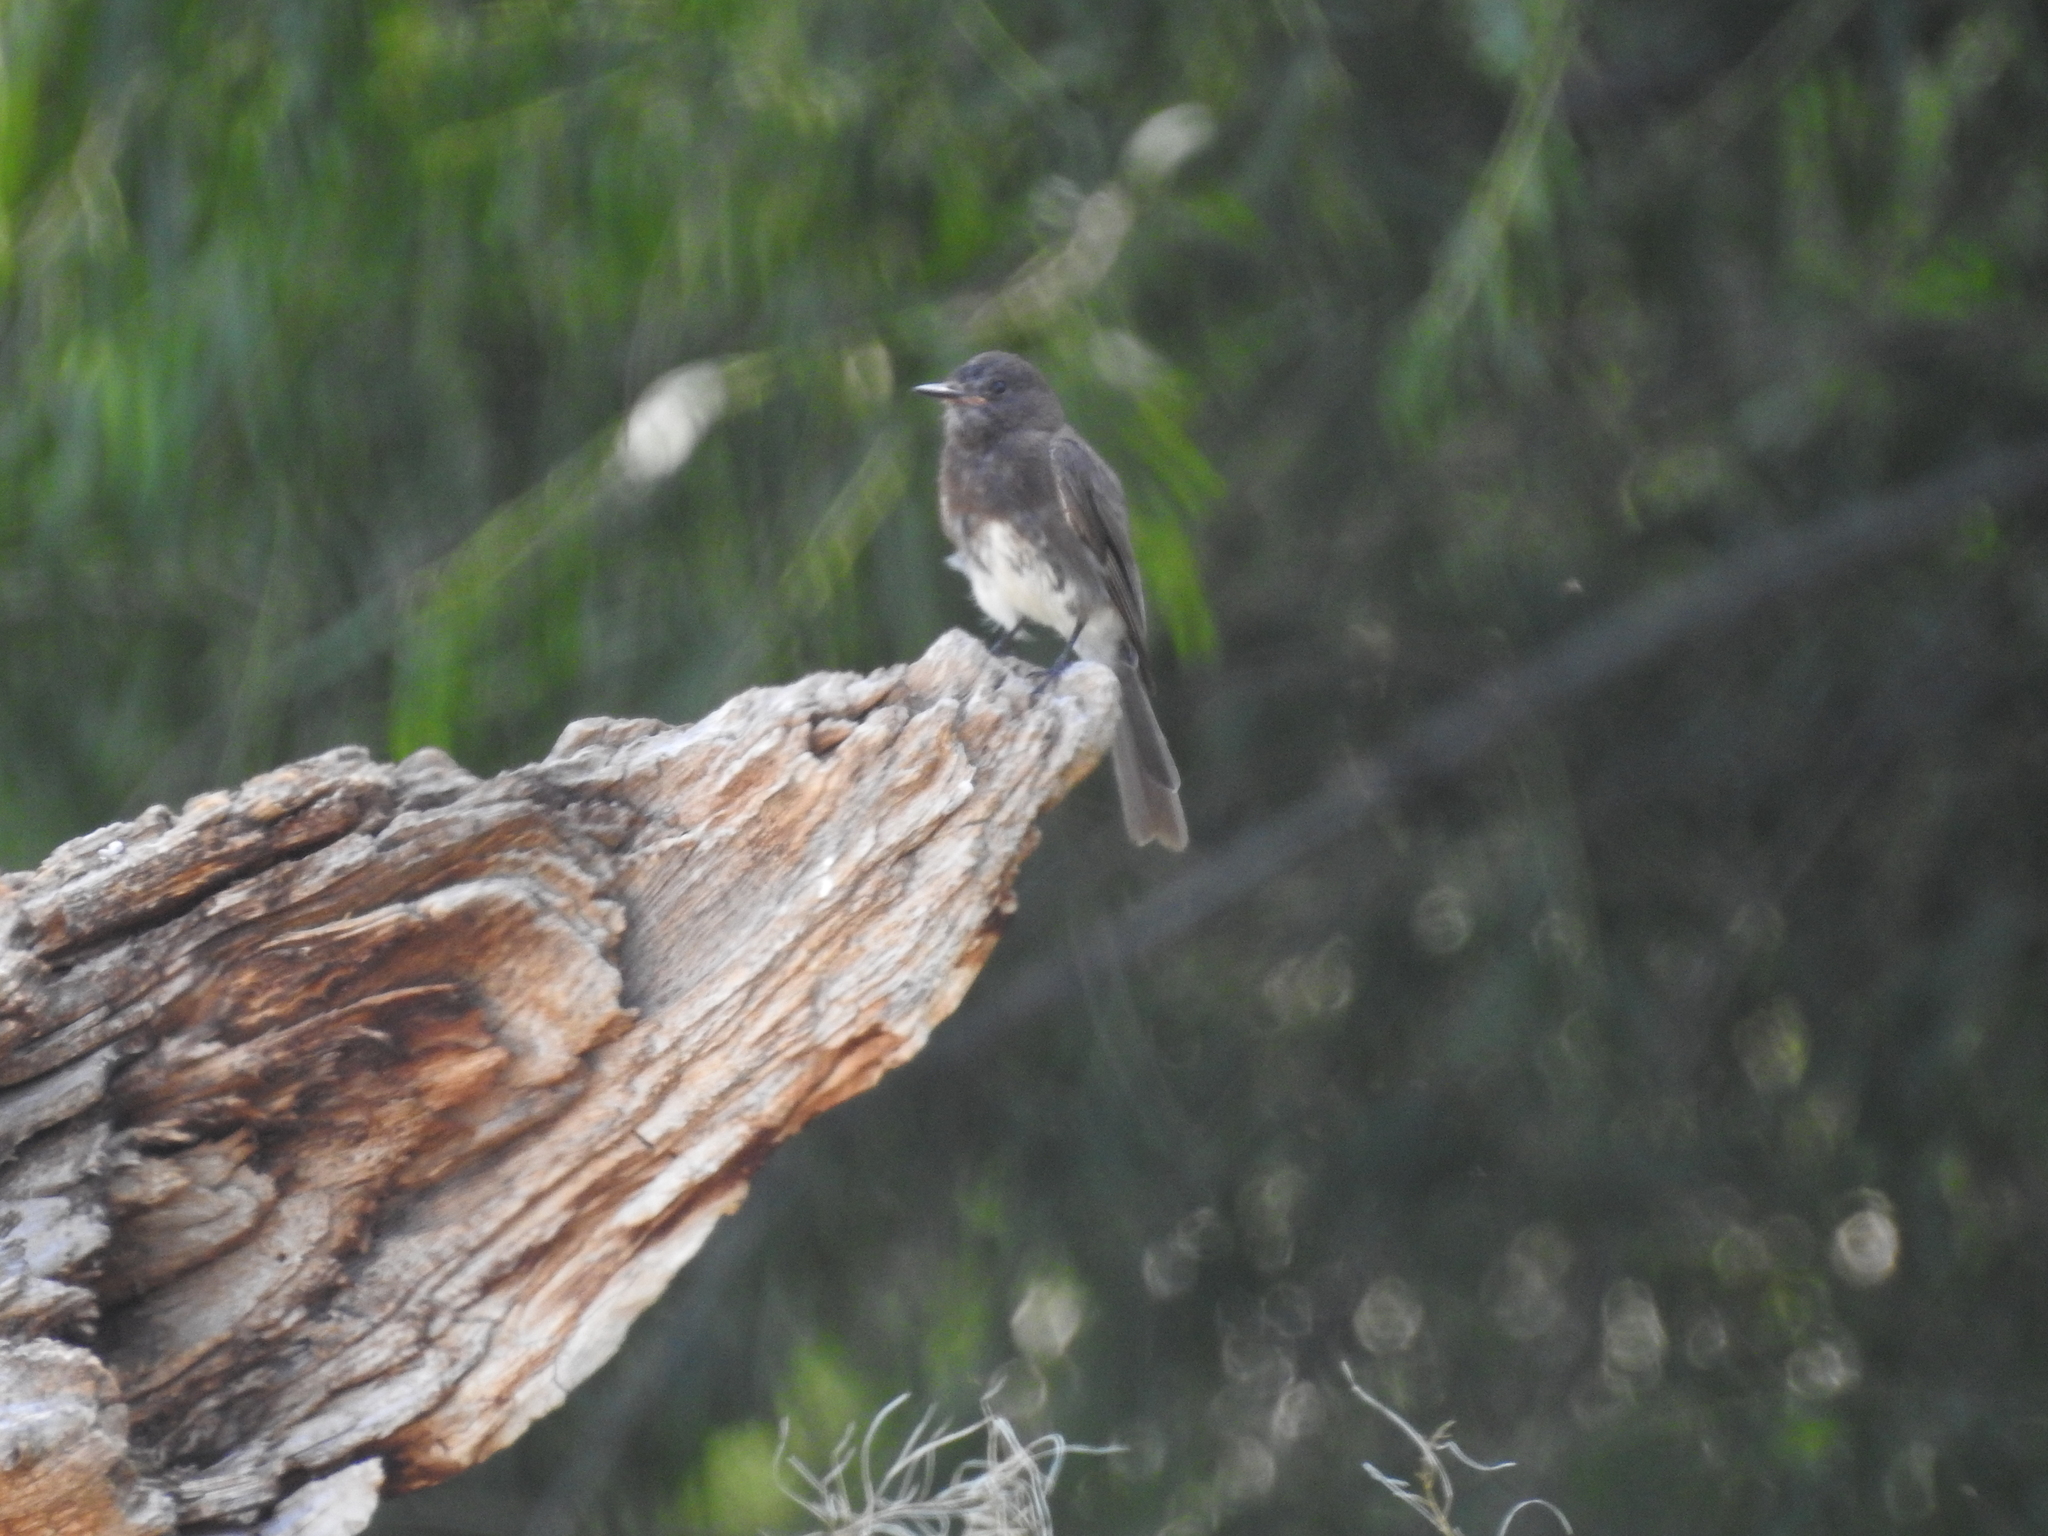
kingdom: Animalia
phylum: Chordata
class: Aves
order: Passeriformes
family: Tyrannidae
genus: Sayornis
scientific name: Sayornis nigricans
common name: Black phoebe
